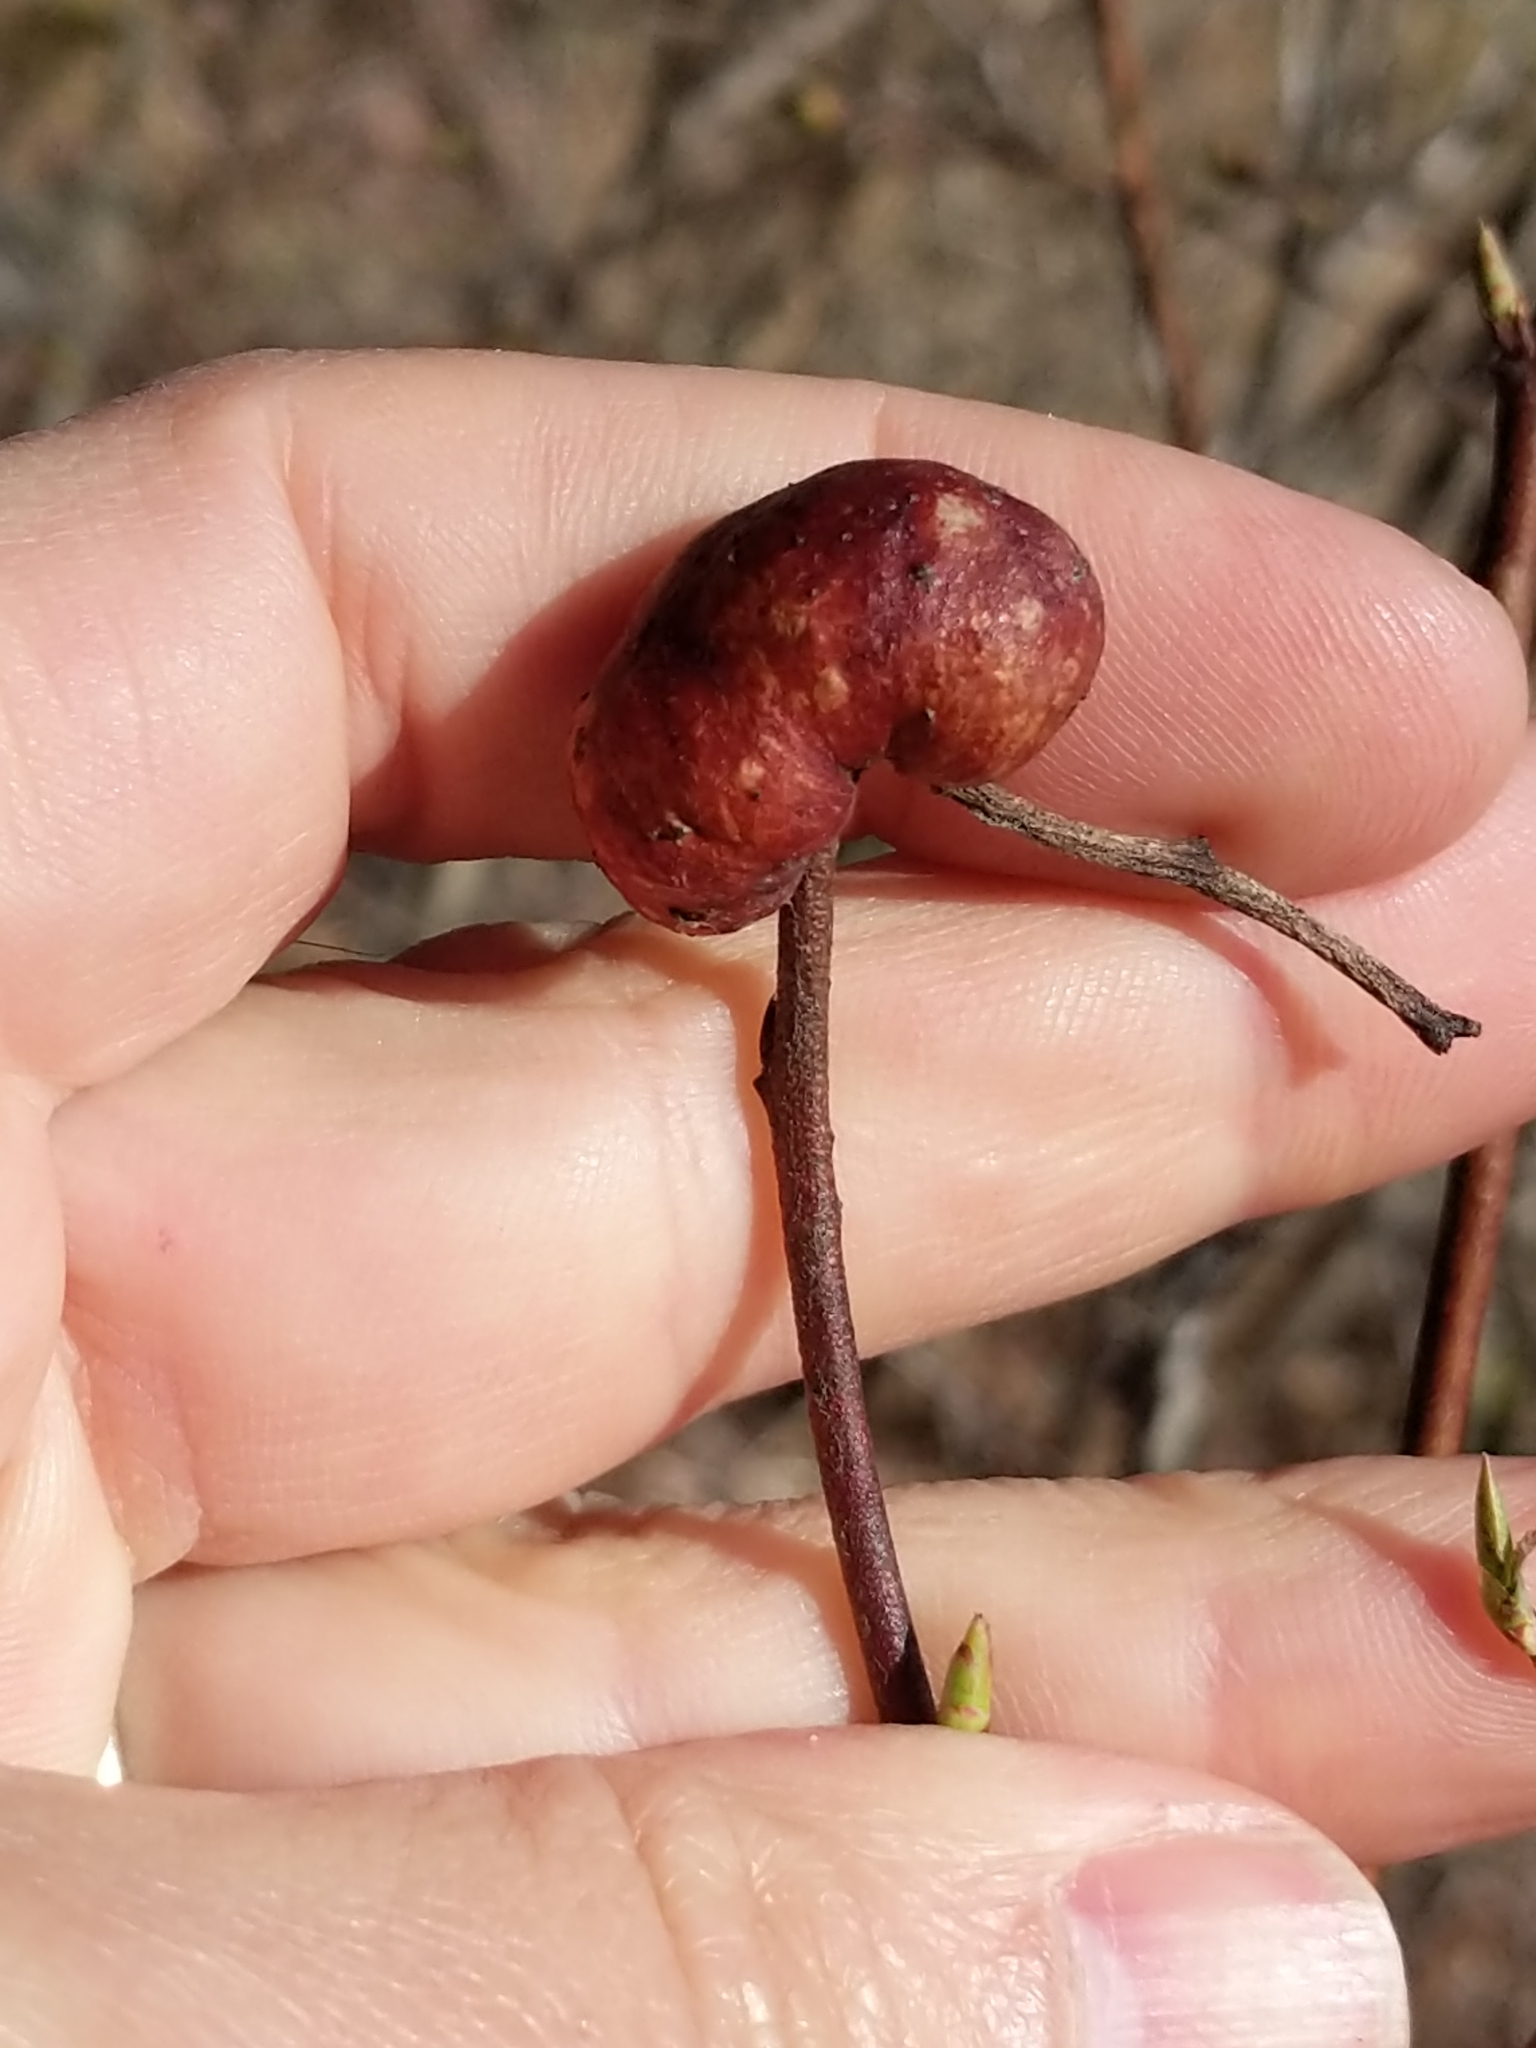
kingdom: Animalia
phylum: Arthropoda
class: Insecta
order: Hymenoptera
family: Pteromalidae
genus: Hemadas
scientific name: Hemadas nubilipennis
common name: Blueberry stem gall wasp
